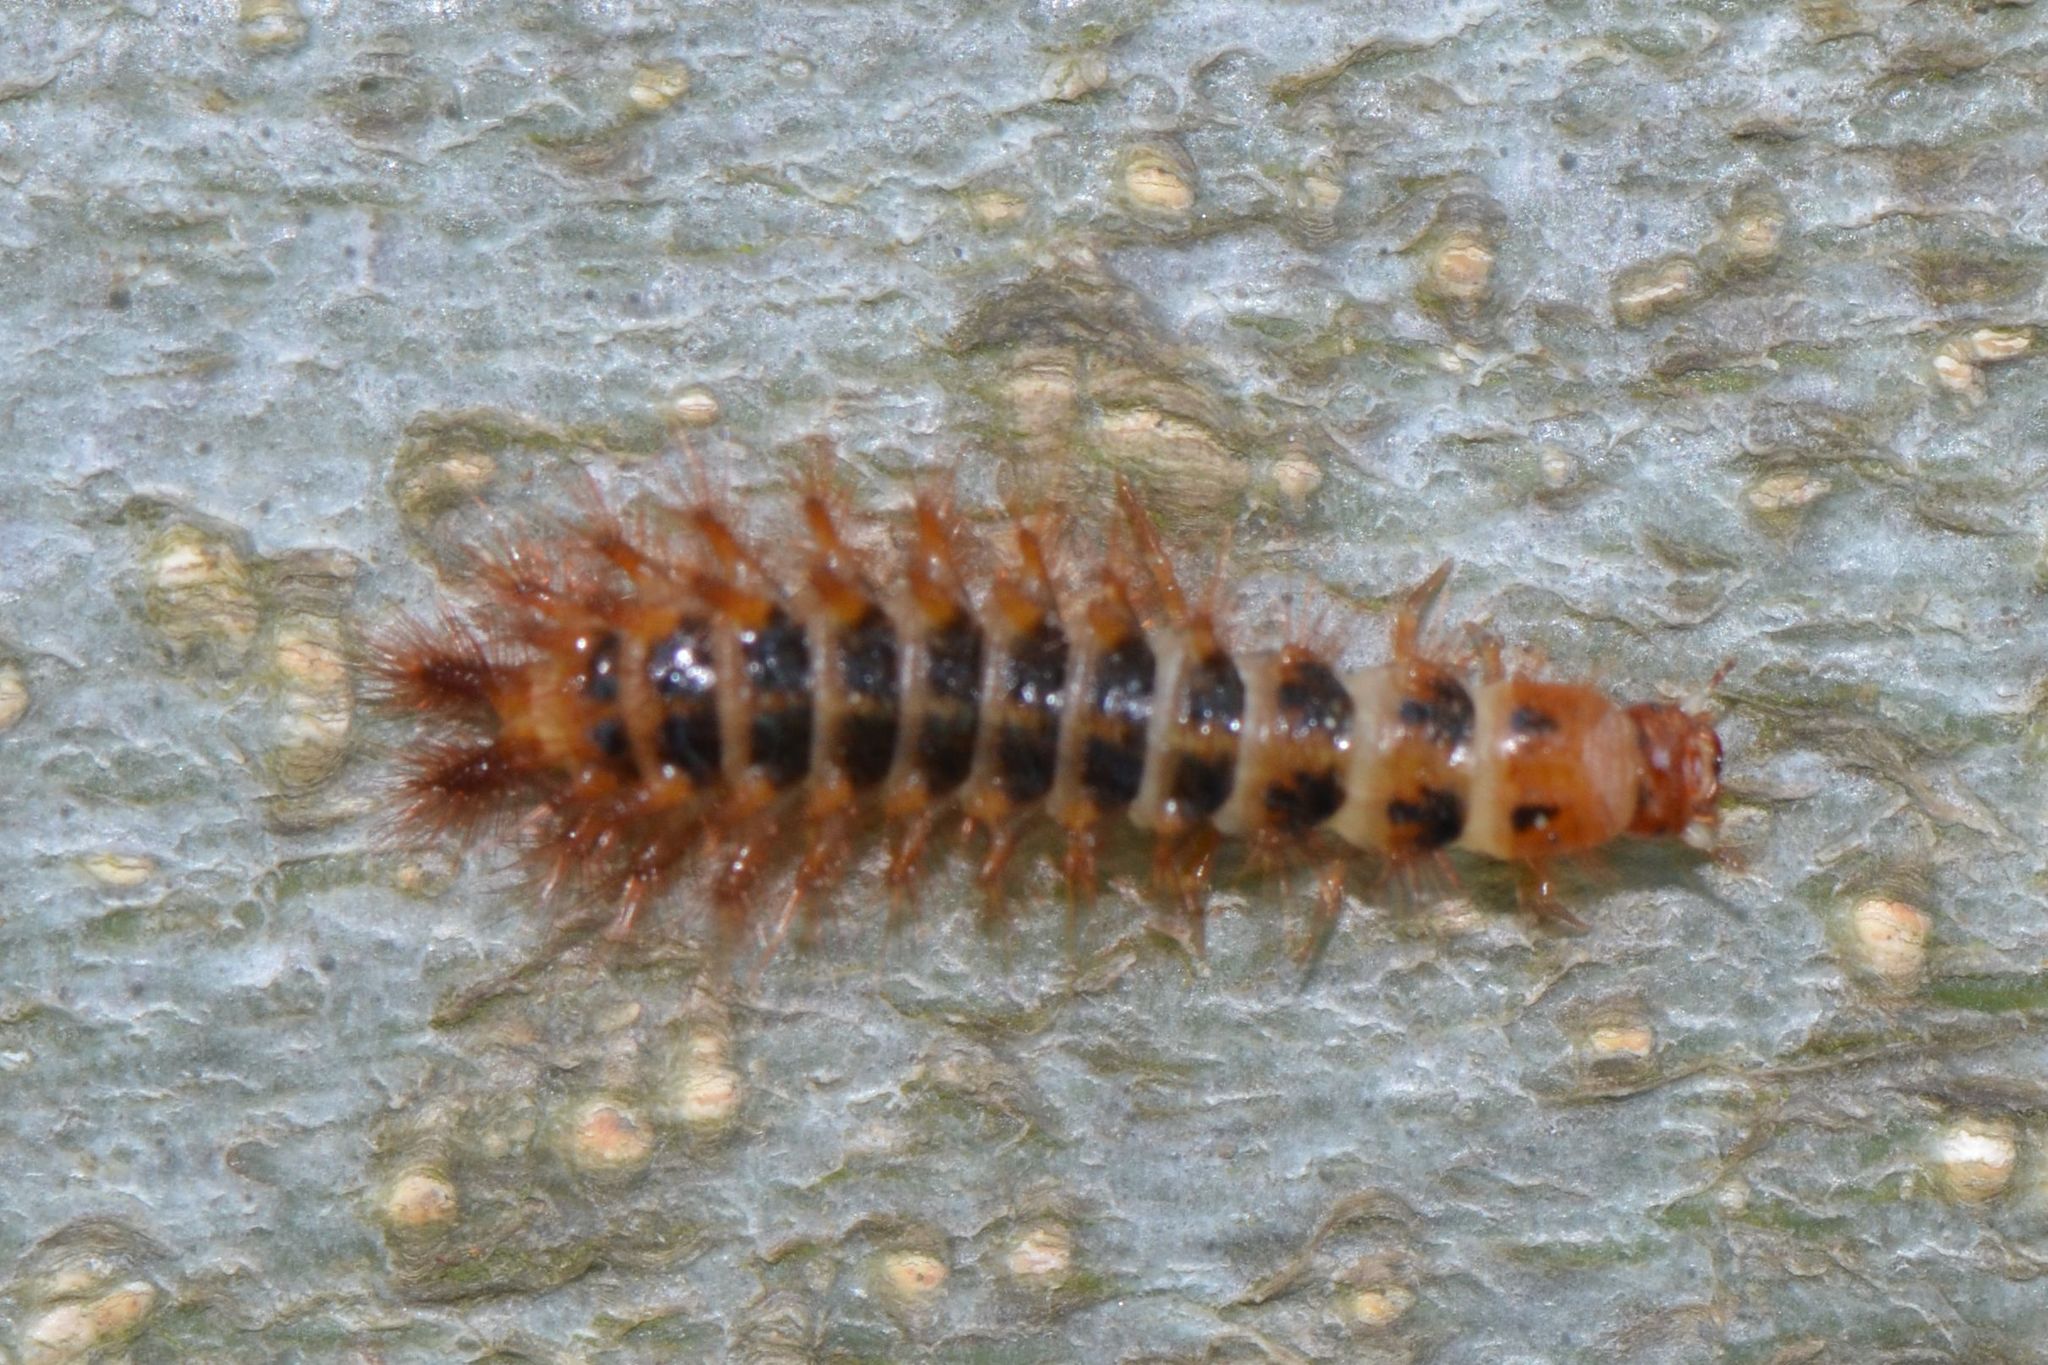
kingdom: Animalia
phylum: Arthropoda
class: Insecta
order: Coleoptera
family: Drilidae
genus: Drilus
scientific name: Drilus flavescens
